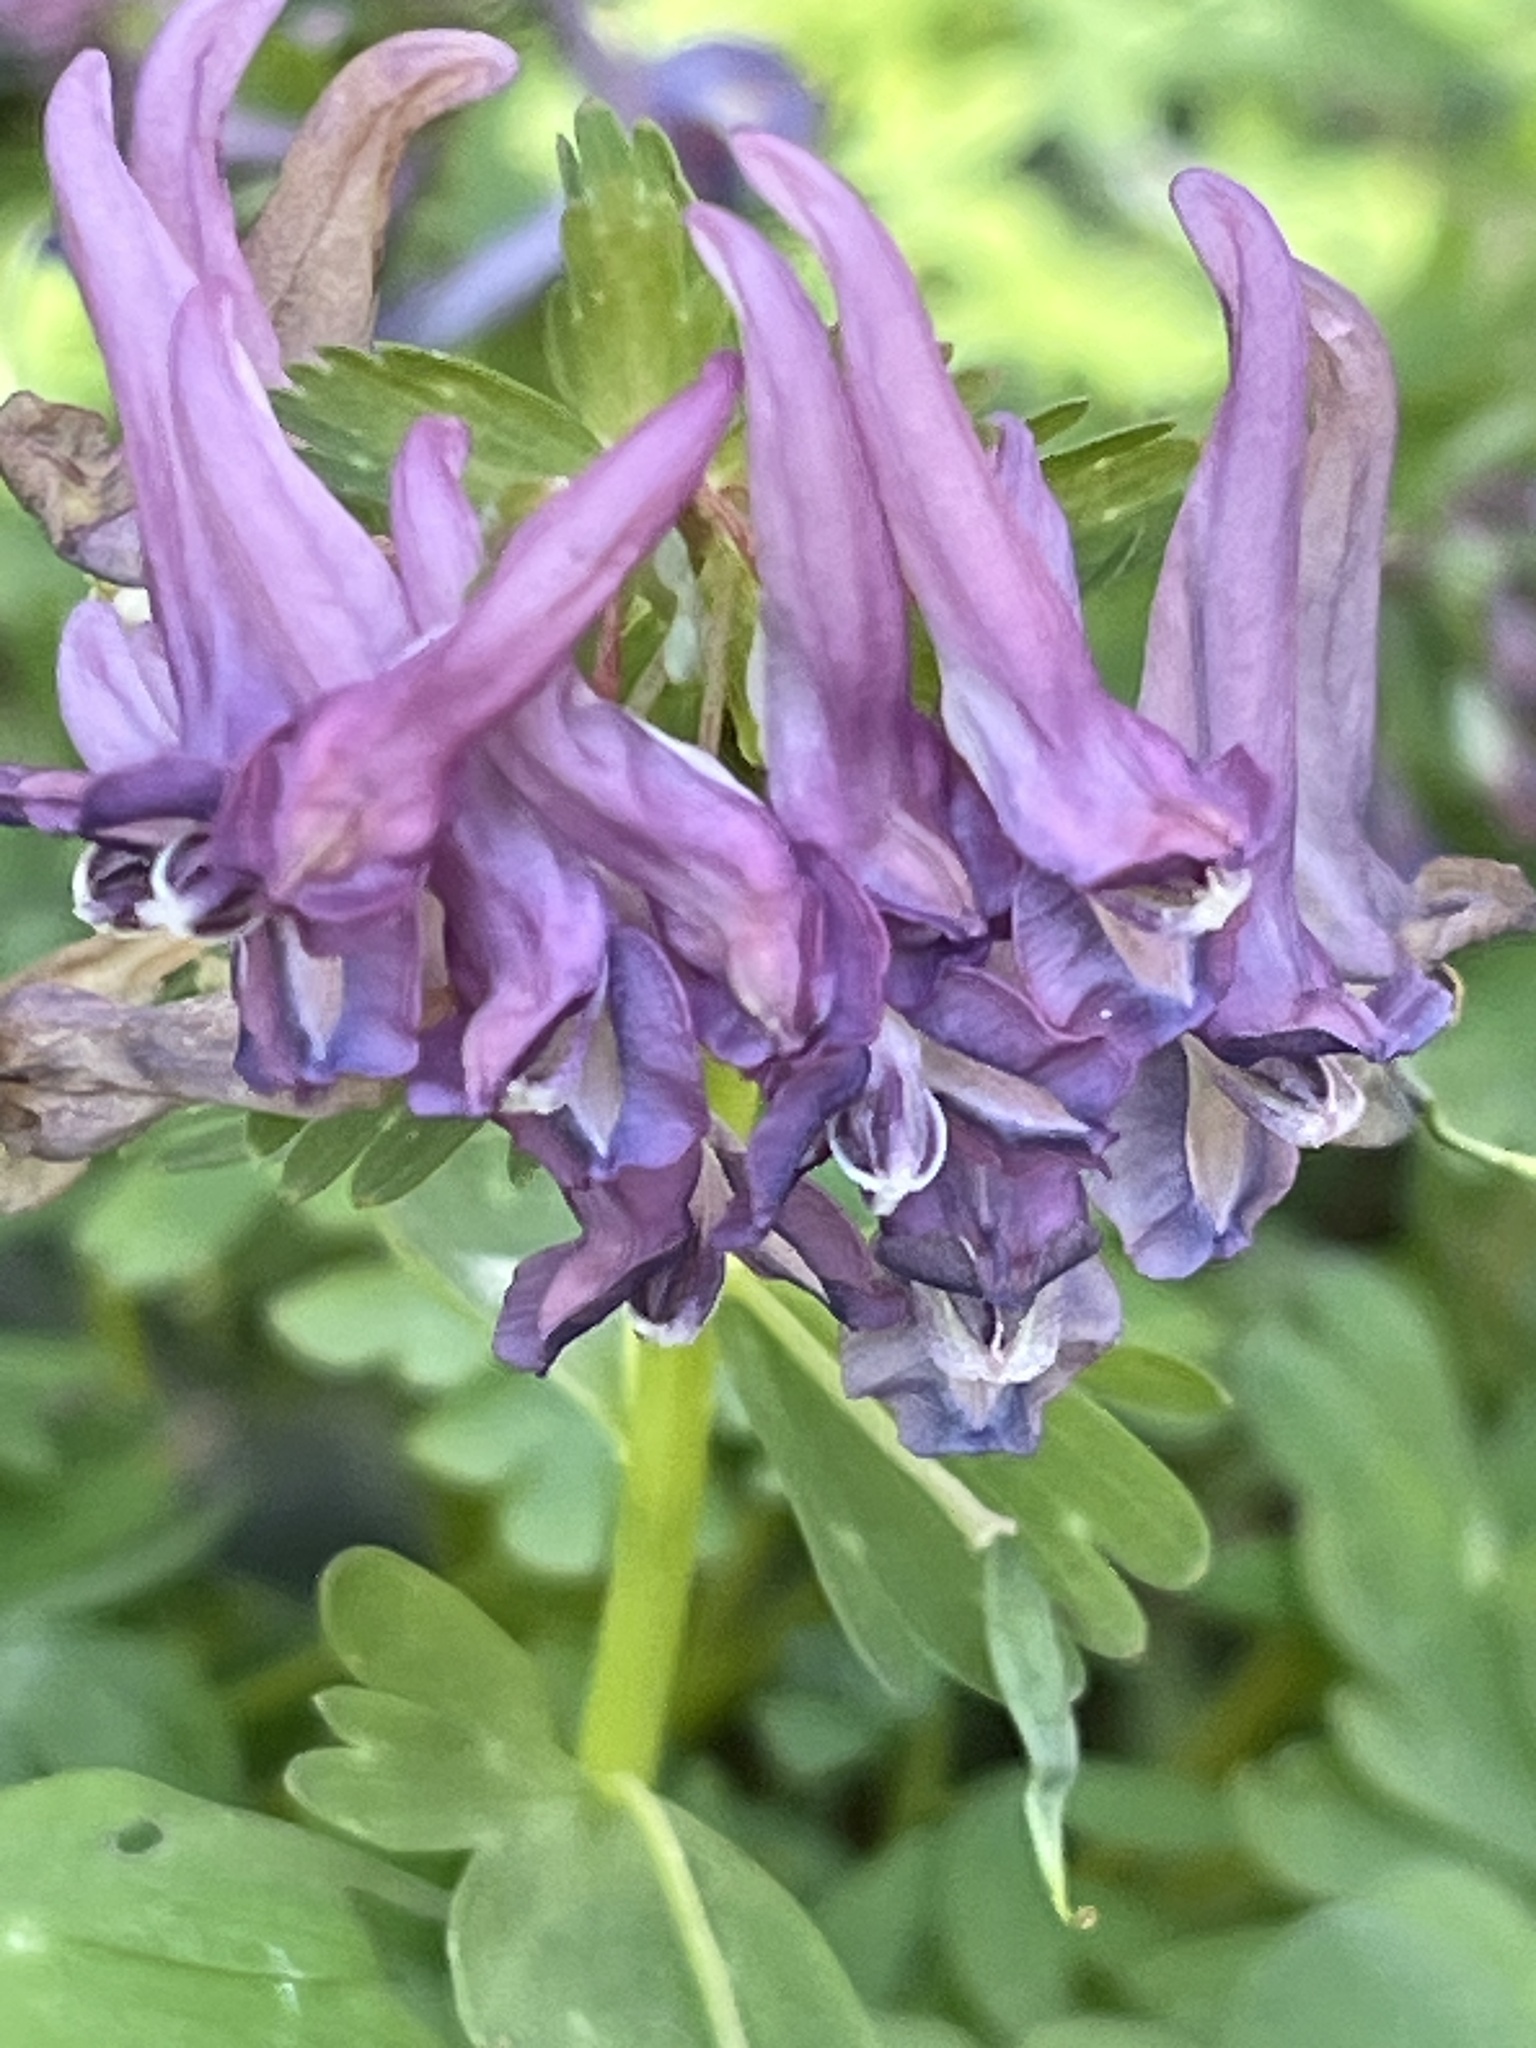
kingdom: Plantae
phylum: Tracheophyta
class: Magnoliopsida
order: Ranunculales
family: Papaveraceae
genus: Corydalis
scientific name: Corydalis solida
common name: Bird-in-a-bush
